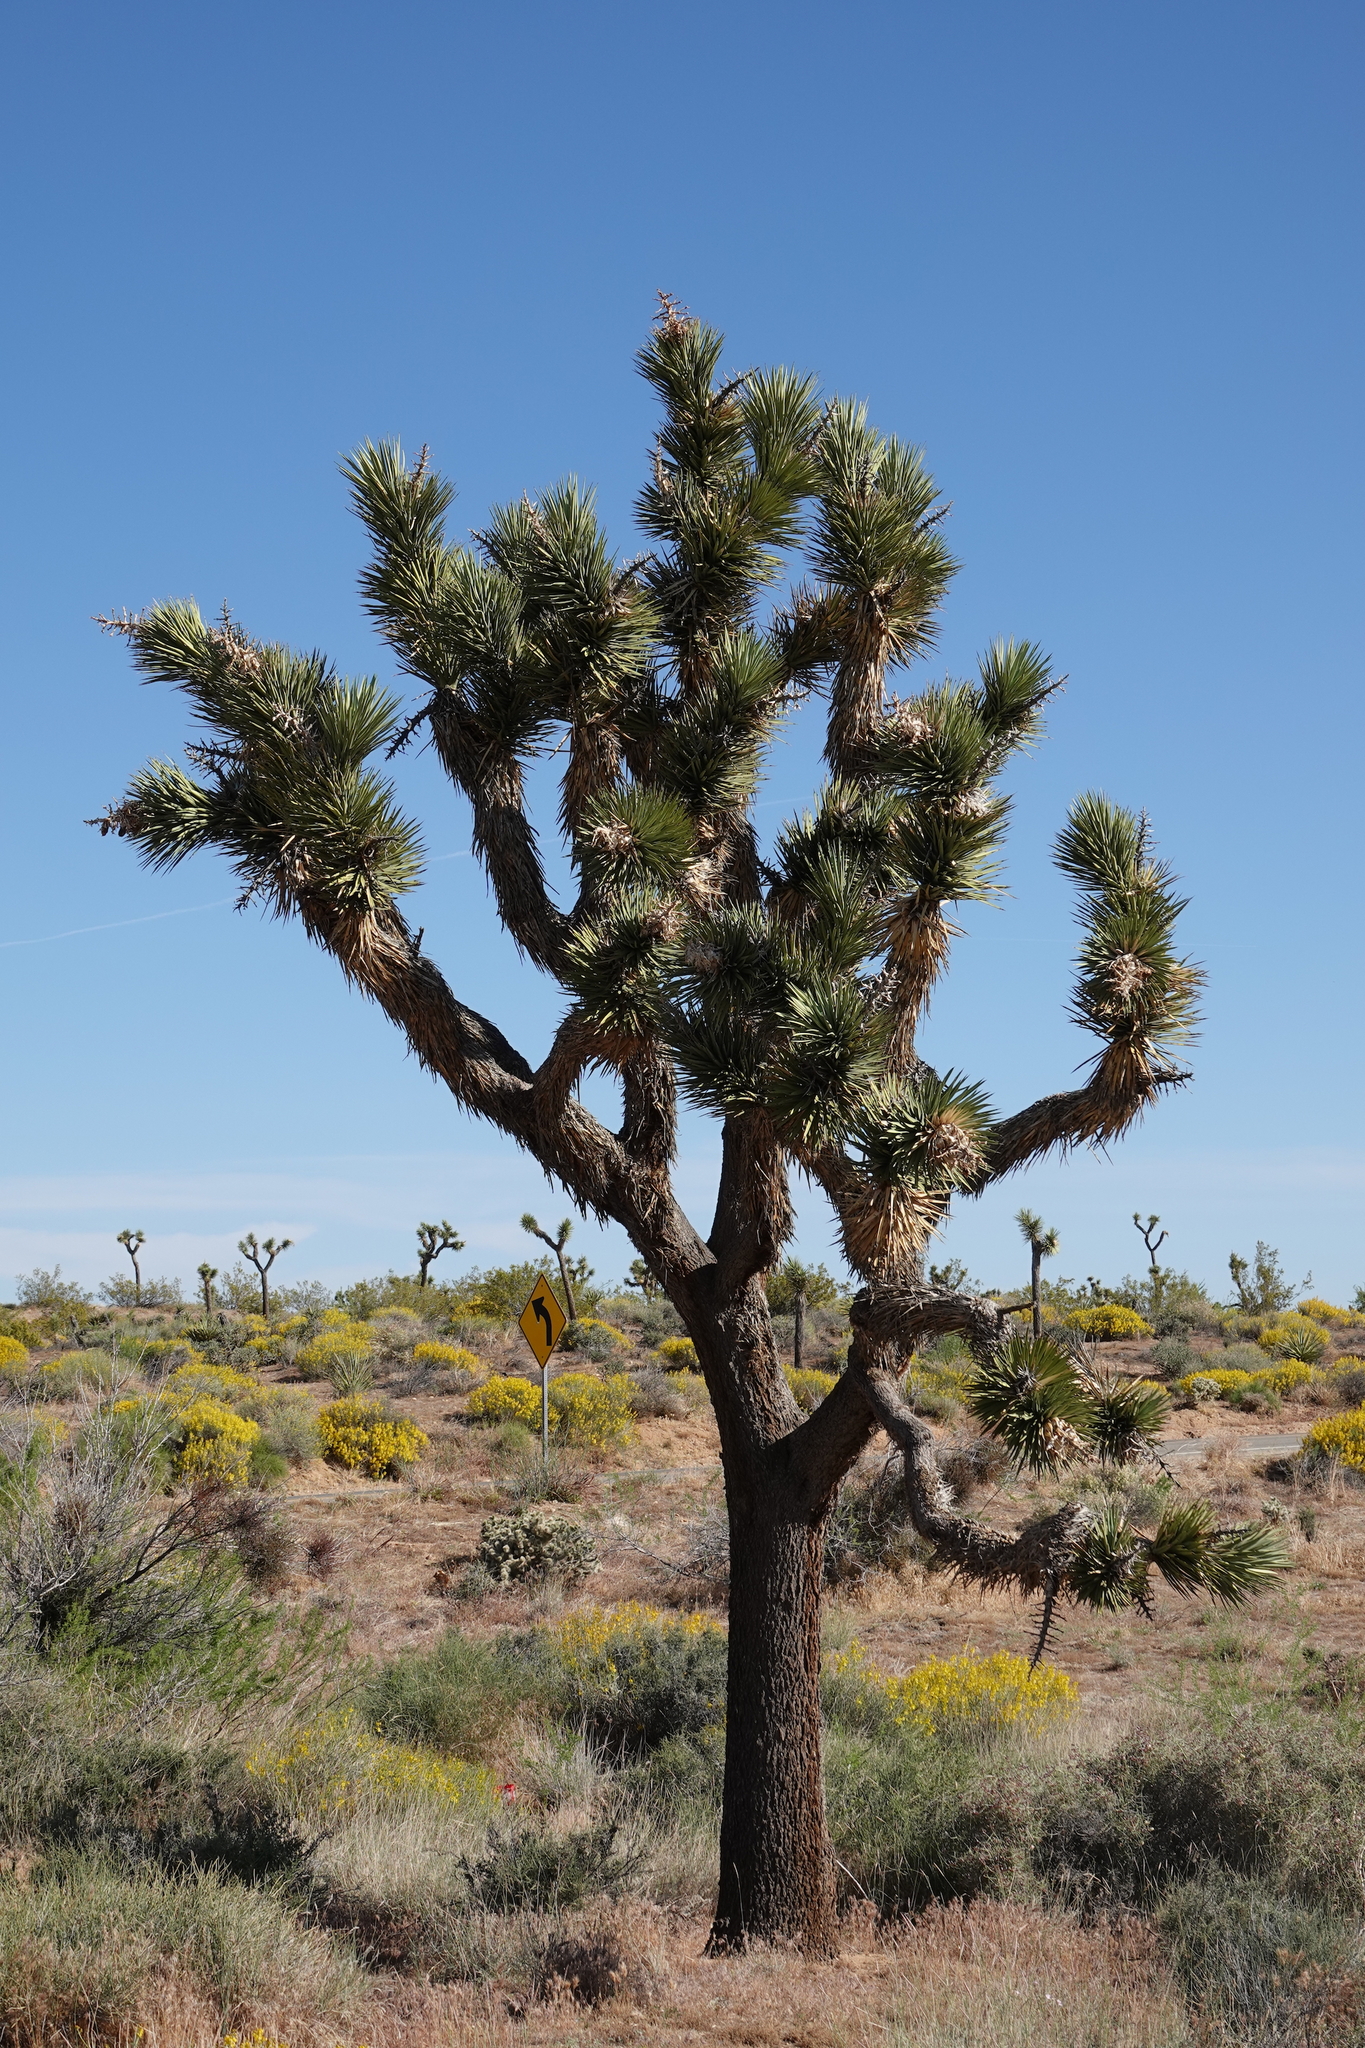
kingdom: Plantae
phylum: Tracheophyta
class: Liliopsida
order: Asparagales
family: Asparagaceae
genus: Yucca
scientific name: Yucca brevifolia
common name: Joshua tree
